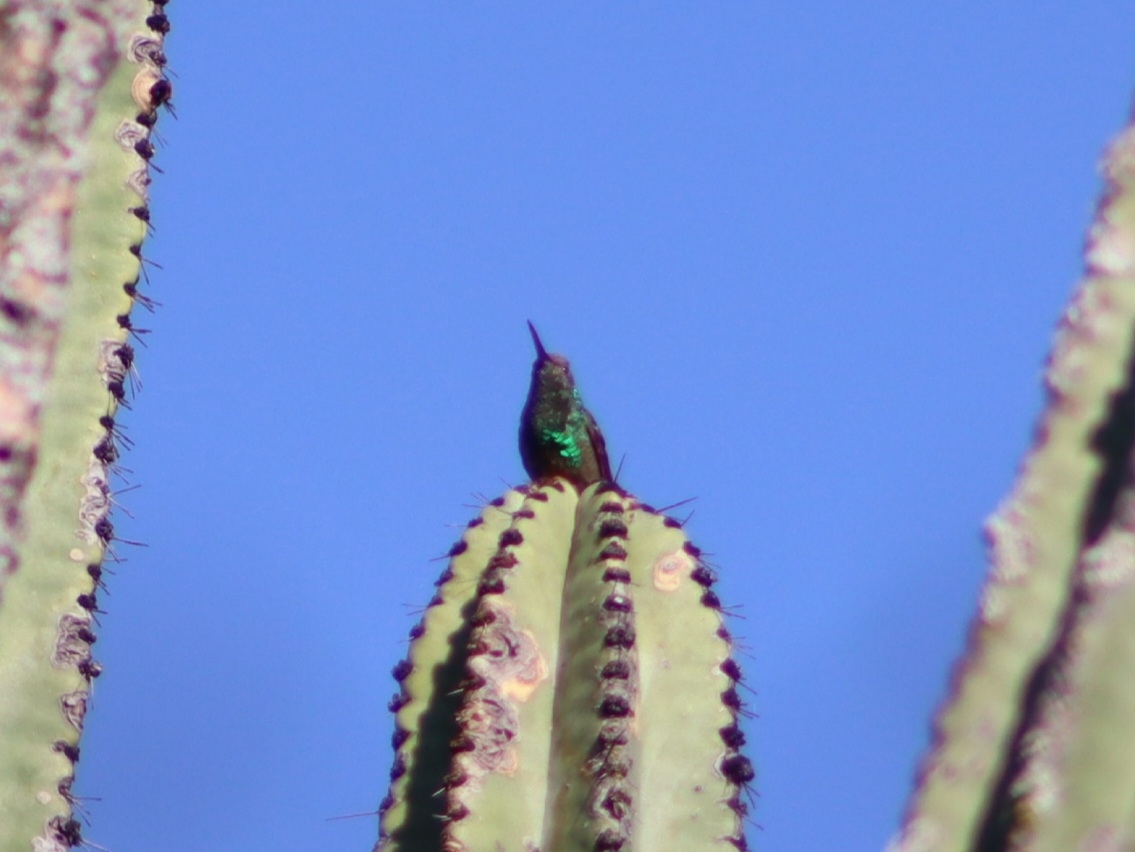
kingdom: Animalia
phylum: Chordata
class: Aves
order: Apodiformes
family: Trochilidae
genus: Saucerottia
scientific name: Saucerottia beryllina
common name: Berylline hummingbird
